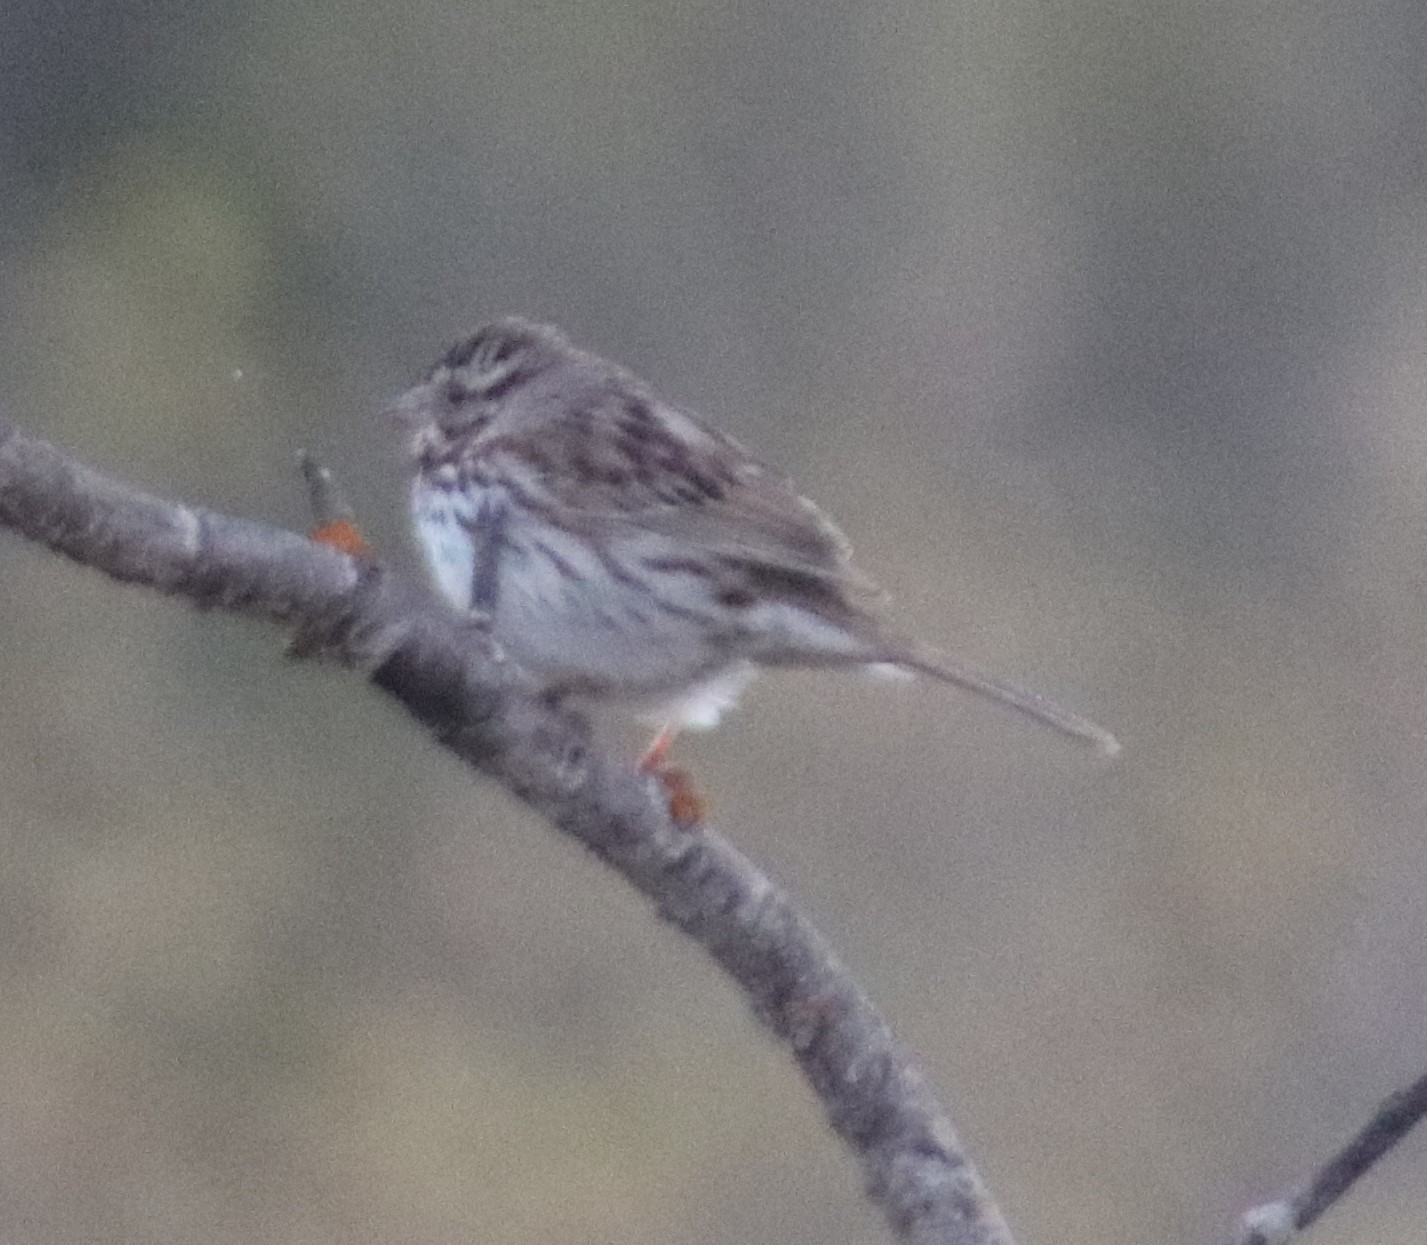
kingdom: Animalia
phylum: Chordata
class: Aves
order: Passeriformes
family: Passerellidae
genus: Melospiza
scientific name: Melospiza melodia
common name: Song sparrow
